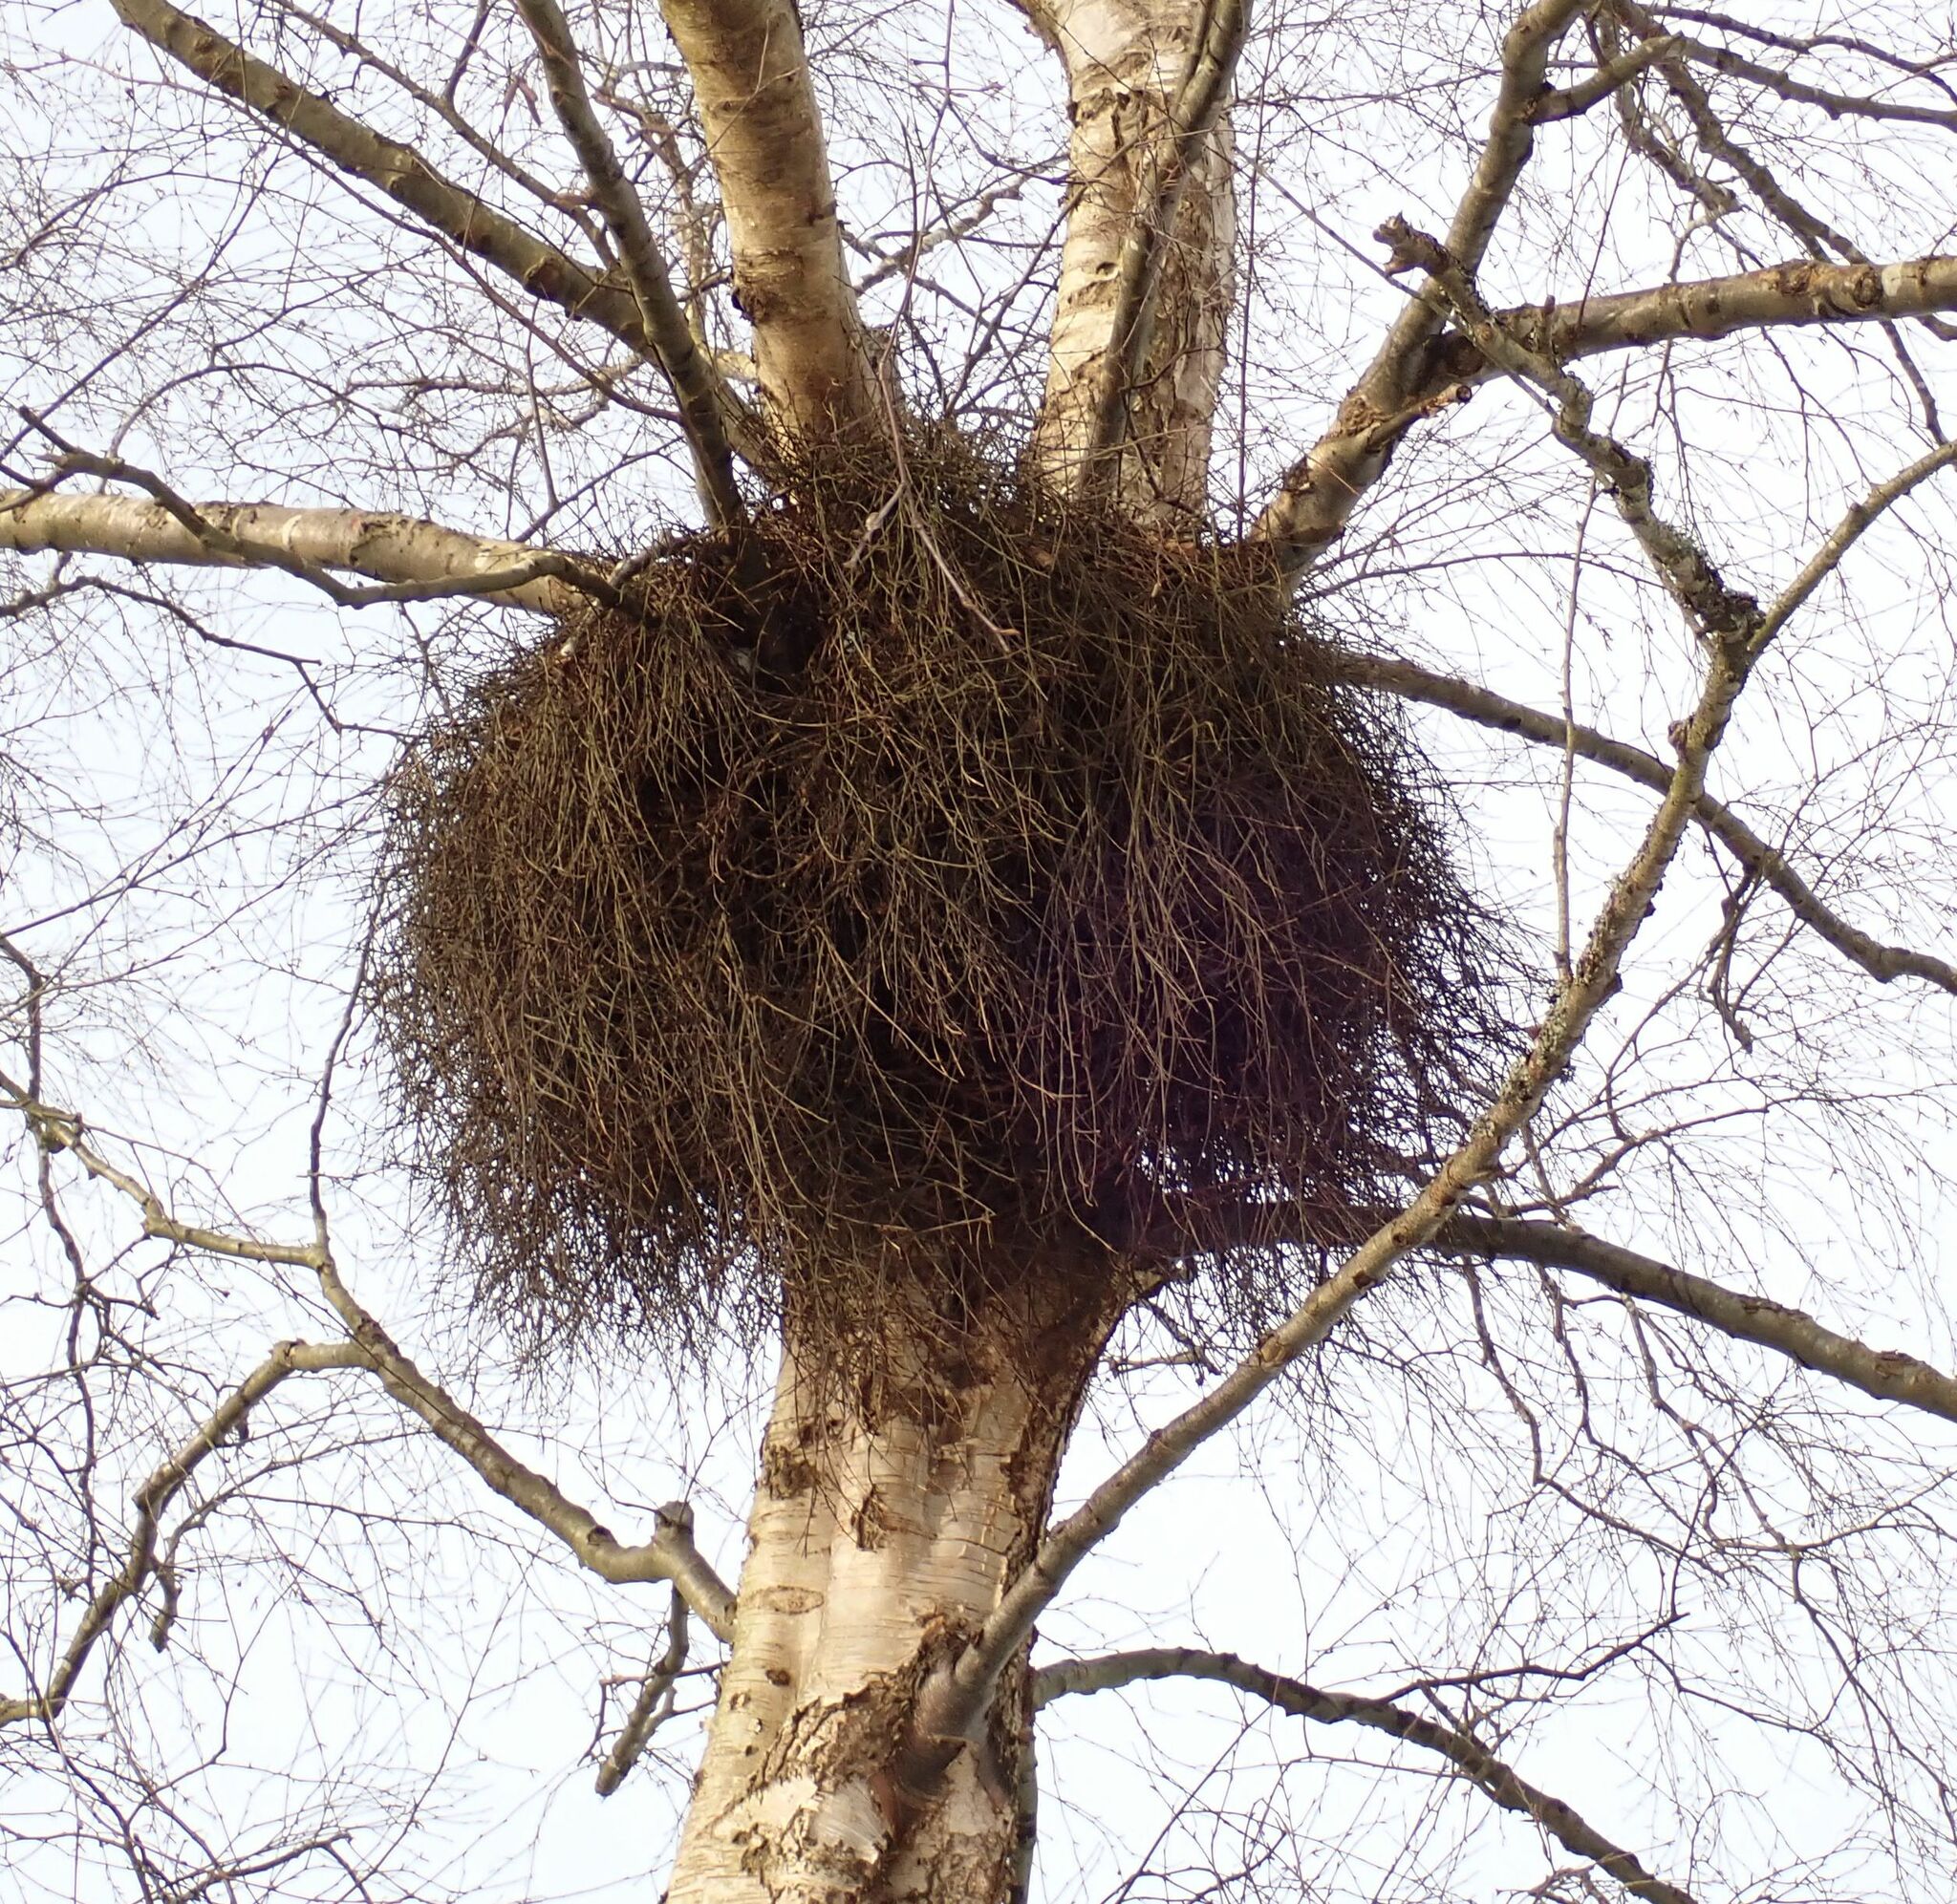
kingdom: Fungi
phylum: Ascomycota
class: Taphrinomycetes
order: Taphrinales
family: Taphrinaceae
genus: Taphrina
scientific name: Taphrina betulina
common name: Birch besom
